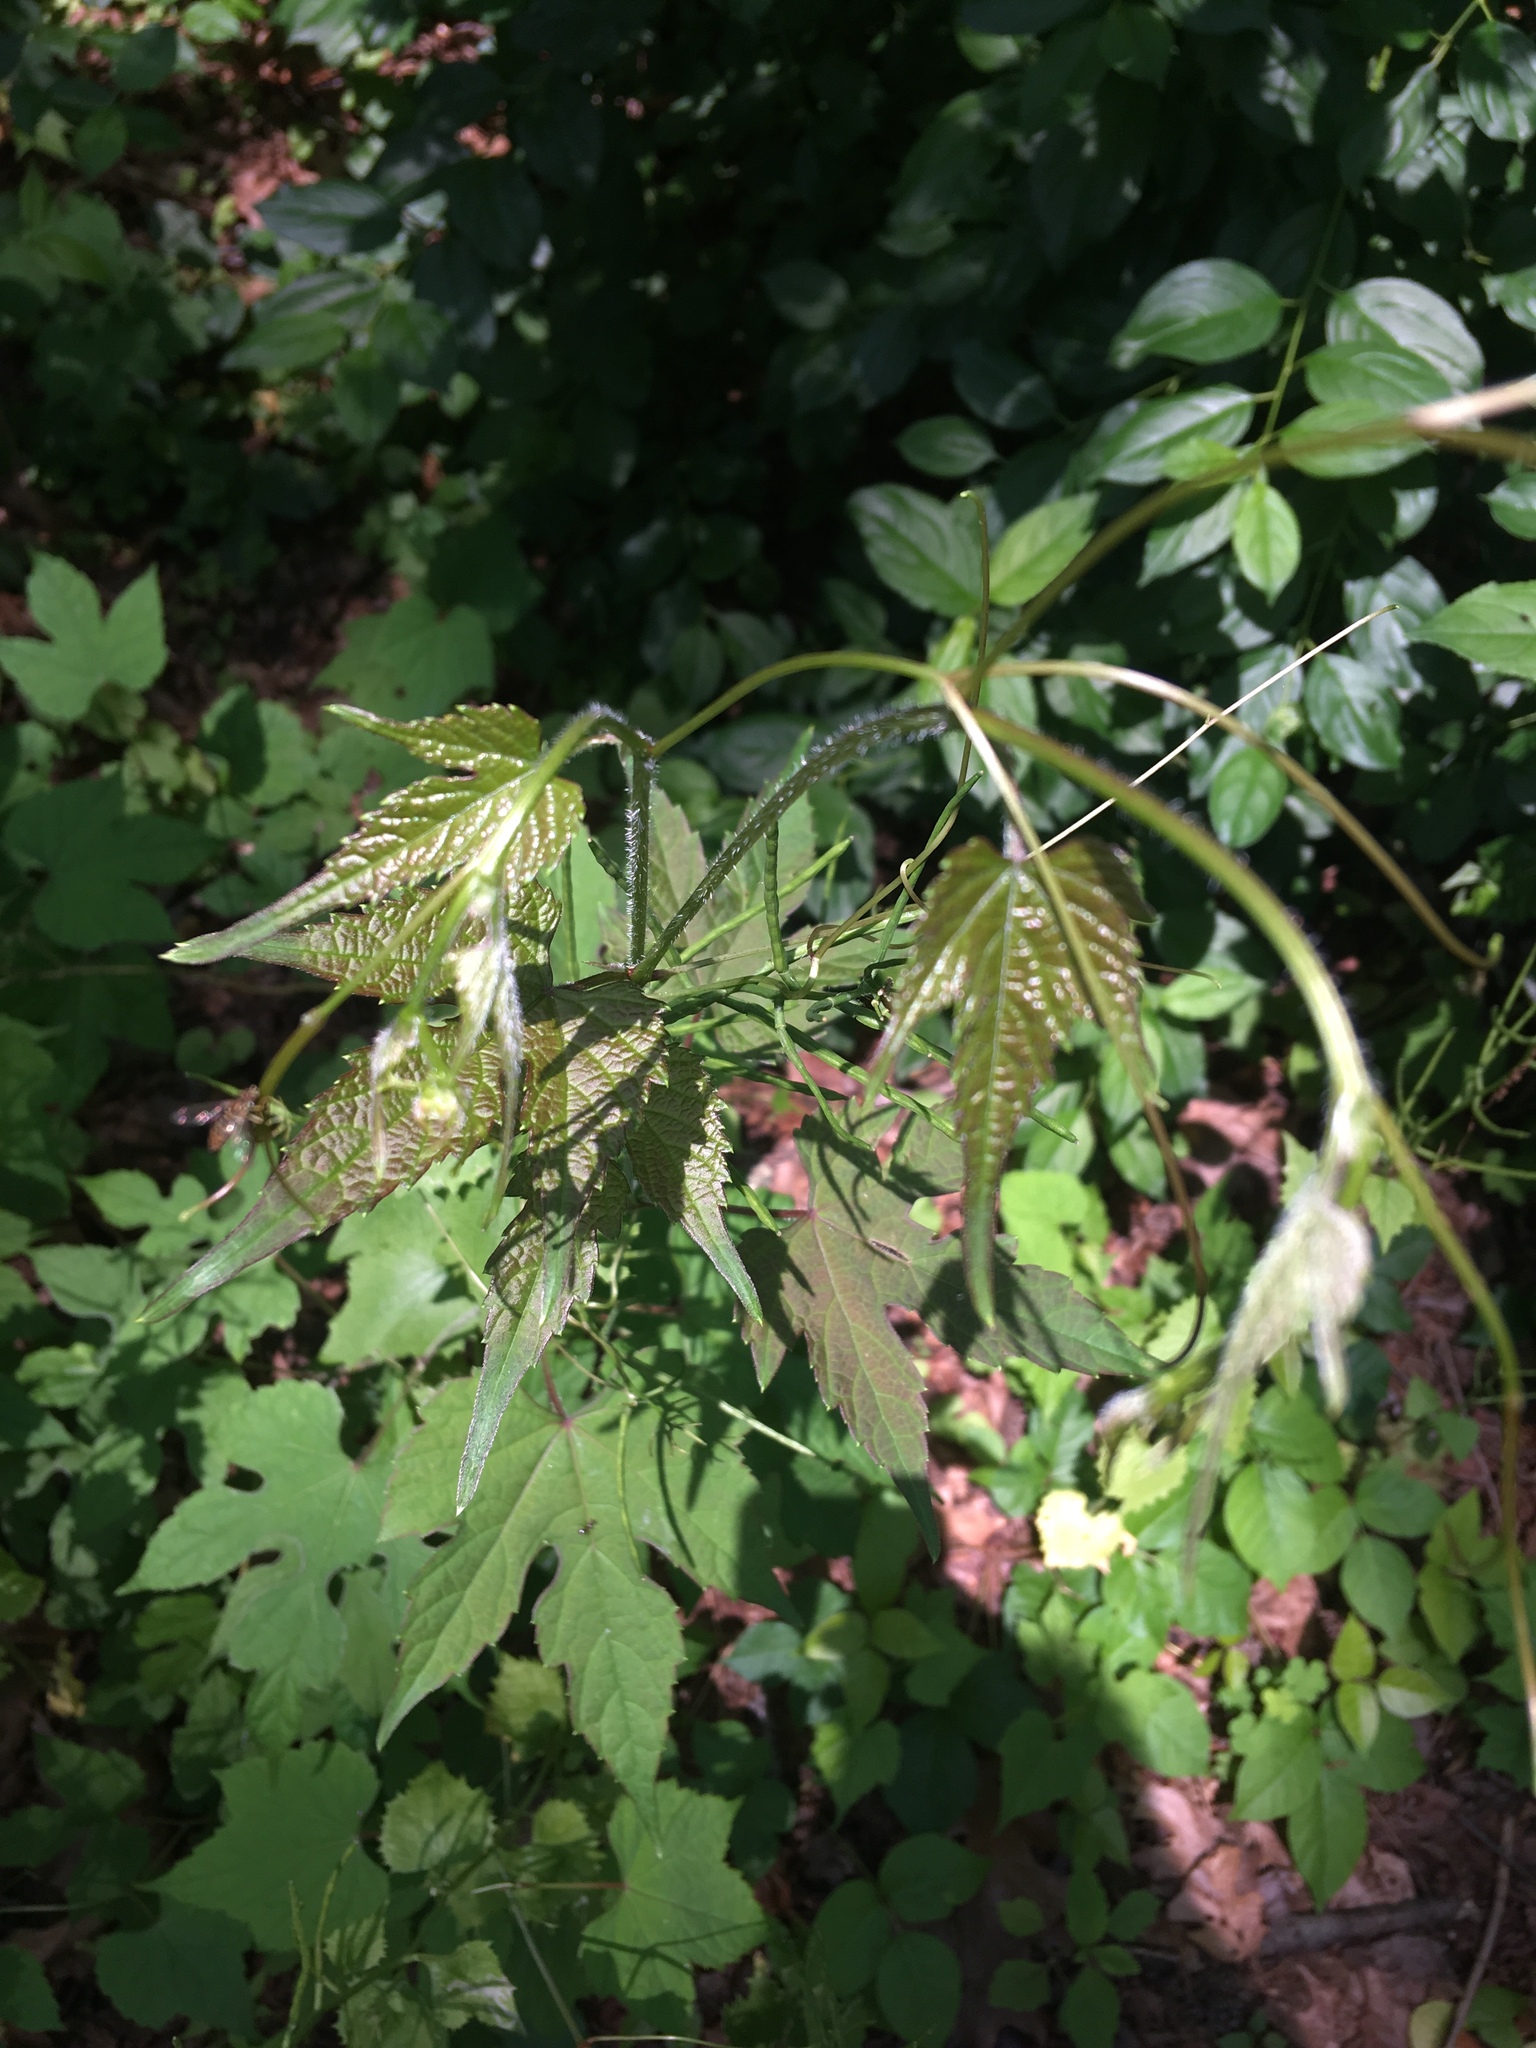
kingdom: Plantae
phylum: Tracheophyta
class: Magnoliopsida
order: Vitales
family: Vitaceae
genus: Ampelopsis
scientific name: Ampelopsis glandulosa
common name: Amur peppervine
